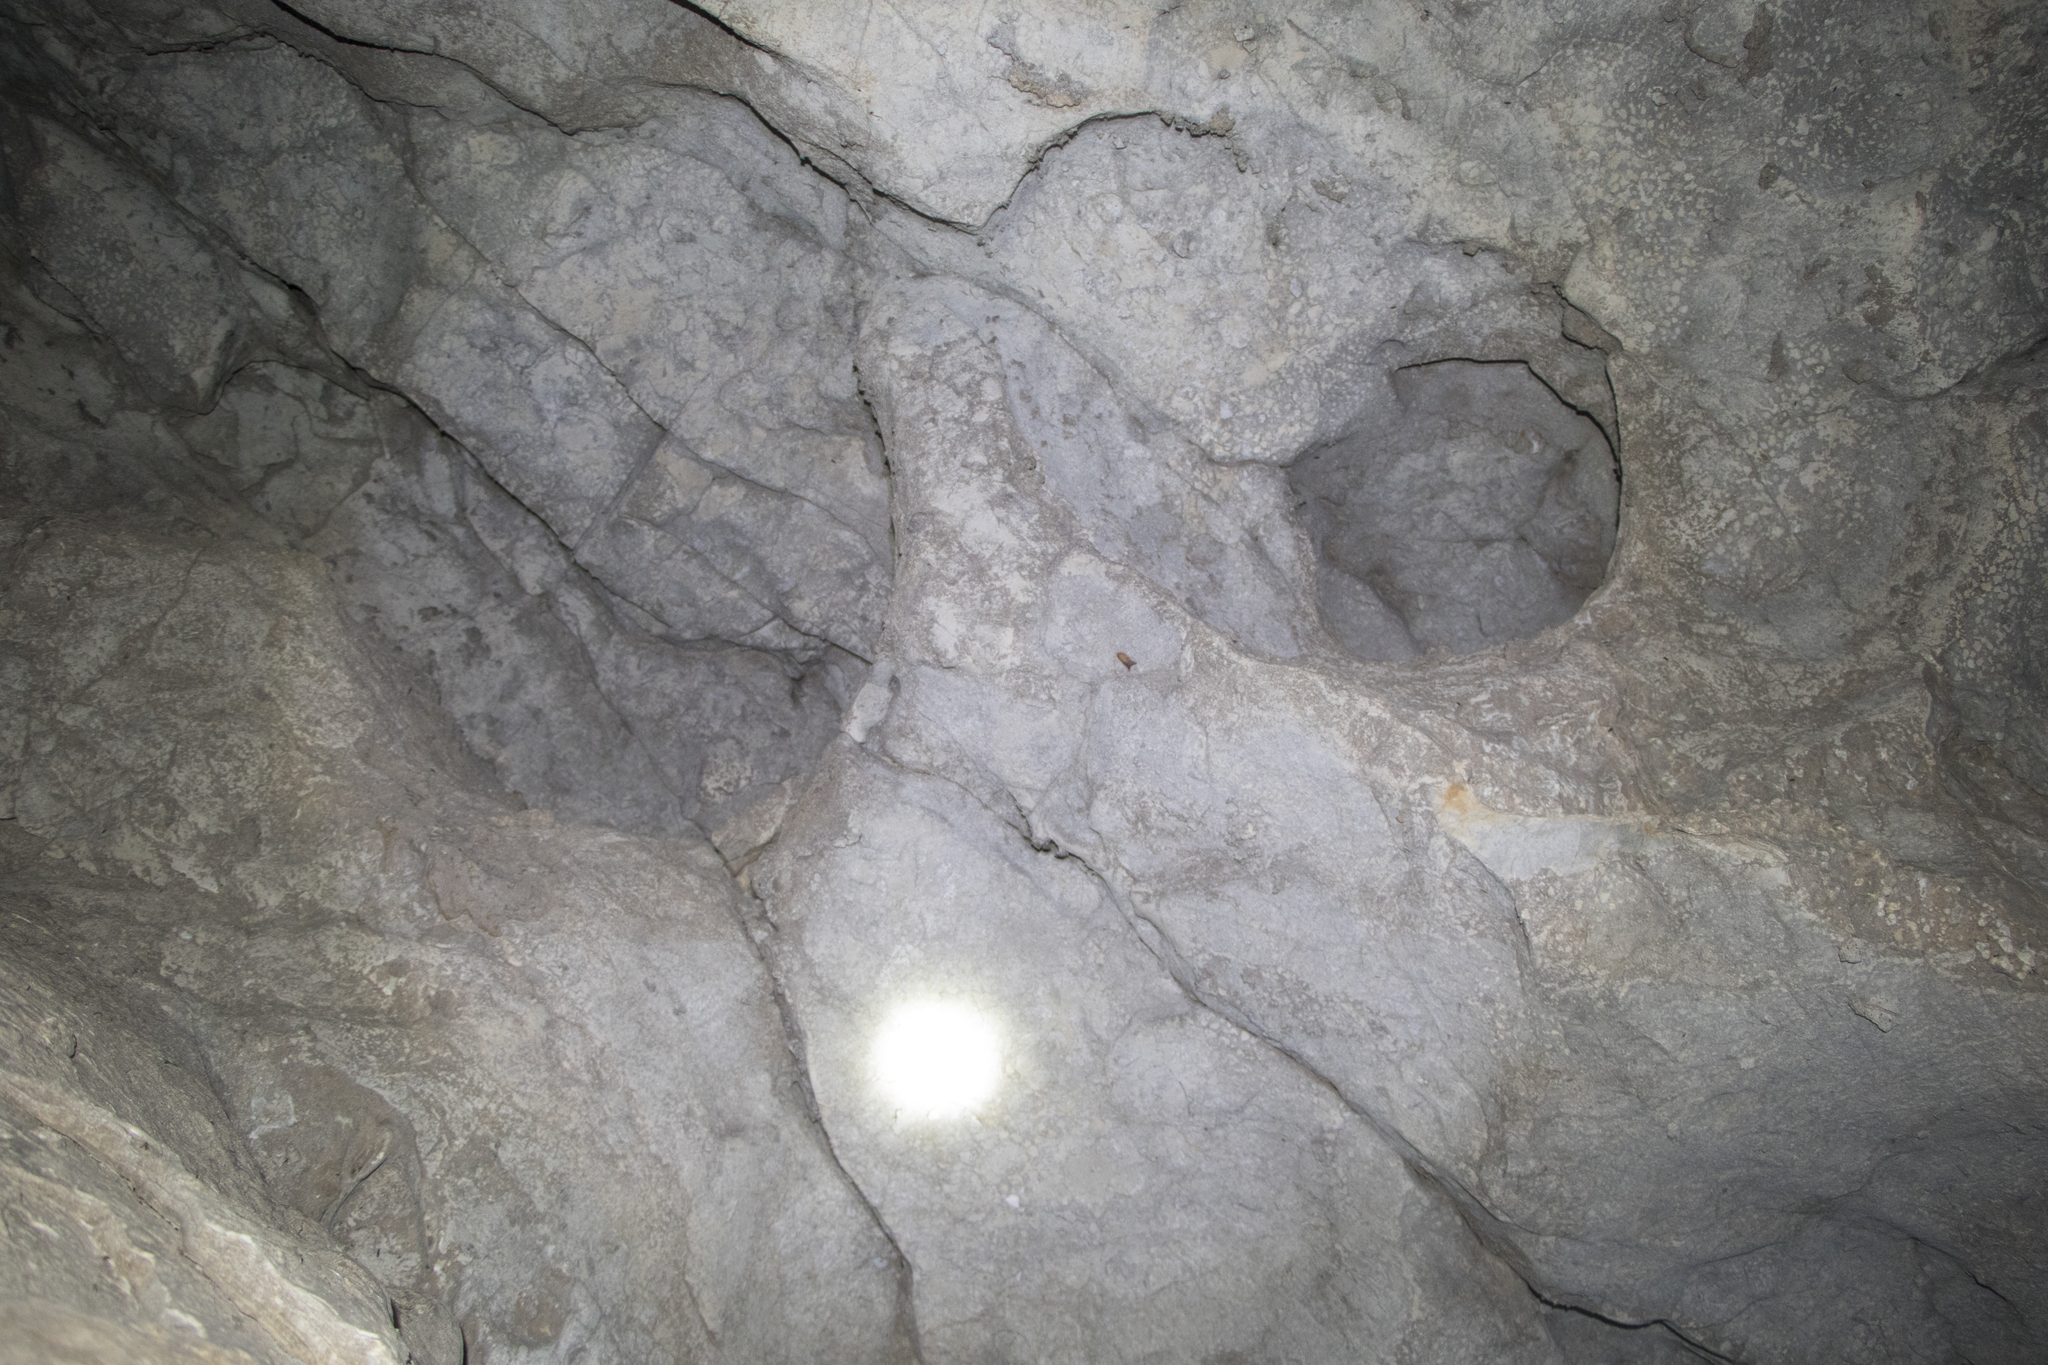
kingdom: Animalia
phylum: Arthropoda
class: Insecta
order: Lepidoptera
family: Erebidae
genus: Scoliopteryx
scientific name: Scoliopteryx libatrix
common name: Herald
